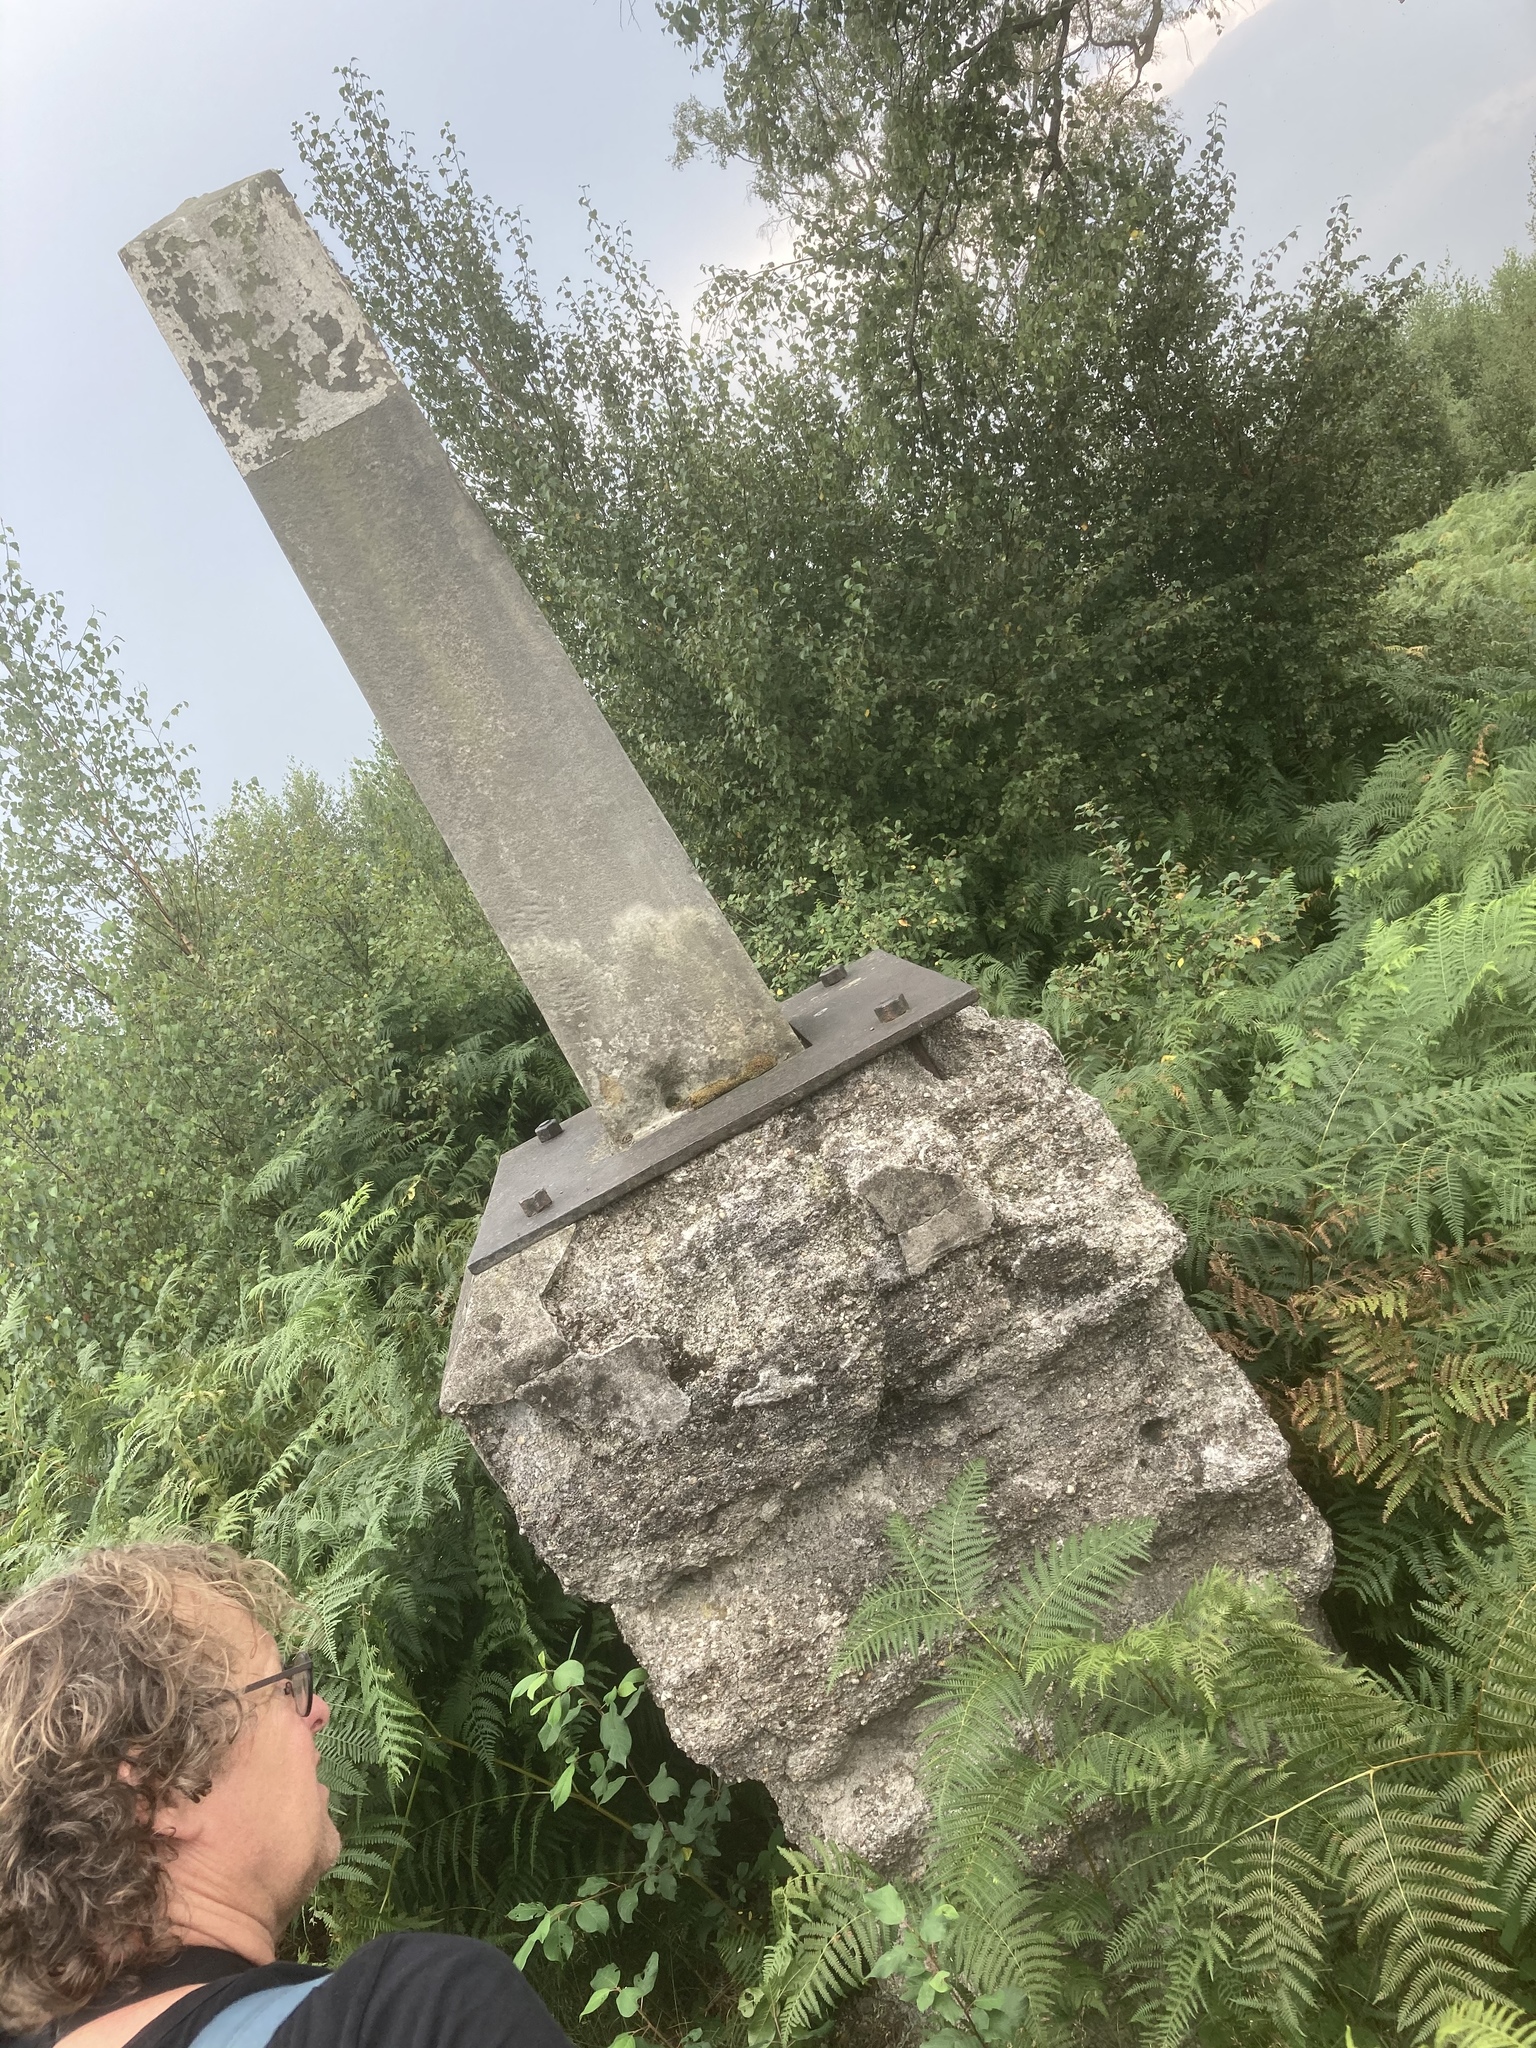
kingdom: Plantae
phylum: Tracheophyta
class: Polypodiopsida
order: Polypodiales
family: Dennstaedtiaceae
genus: Pteridium
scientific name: Pteridium aquilinum
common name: Bracken
